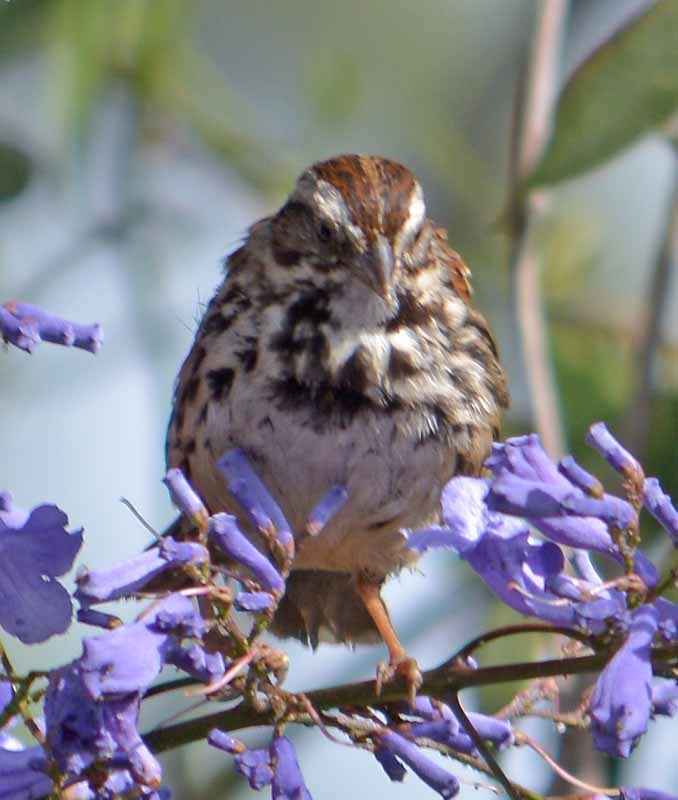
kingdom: Animalia
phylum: Chordata
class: Aves
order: Passeriformes
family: Passerellidae
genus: Melospiza
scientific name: Melospiza melodia
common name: Song sparrow
